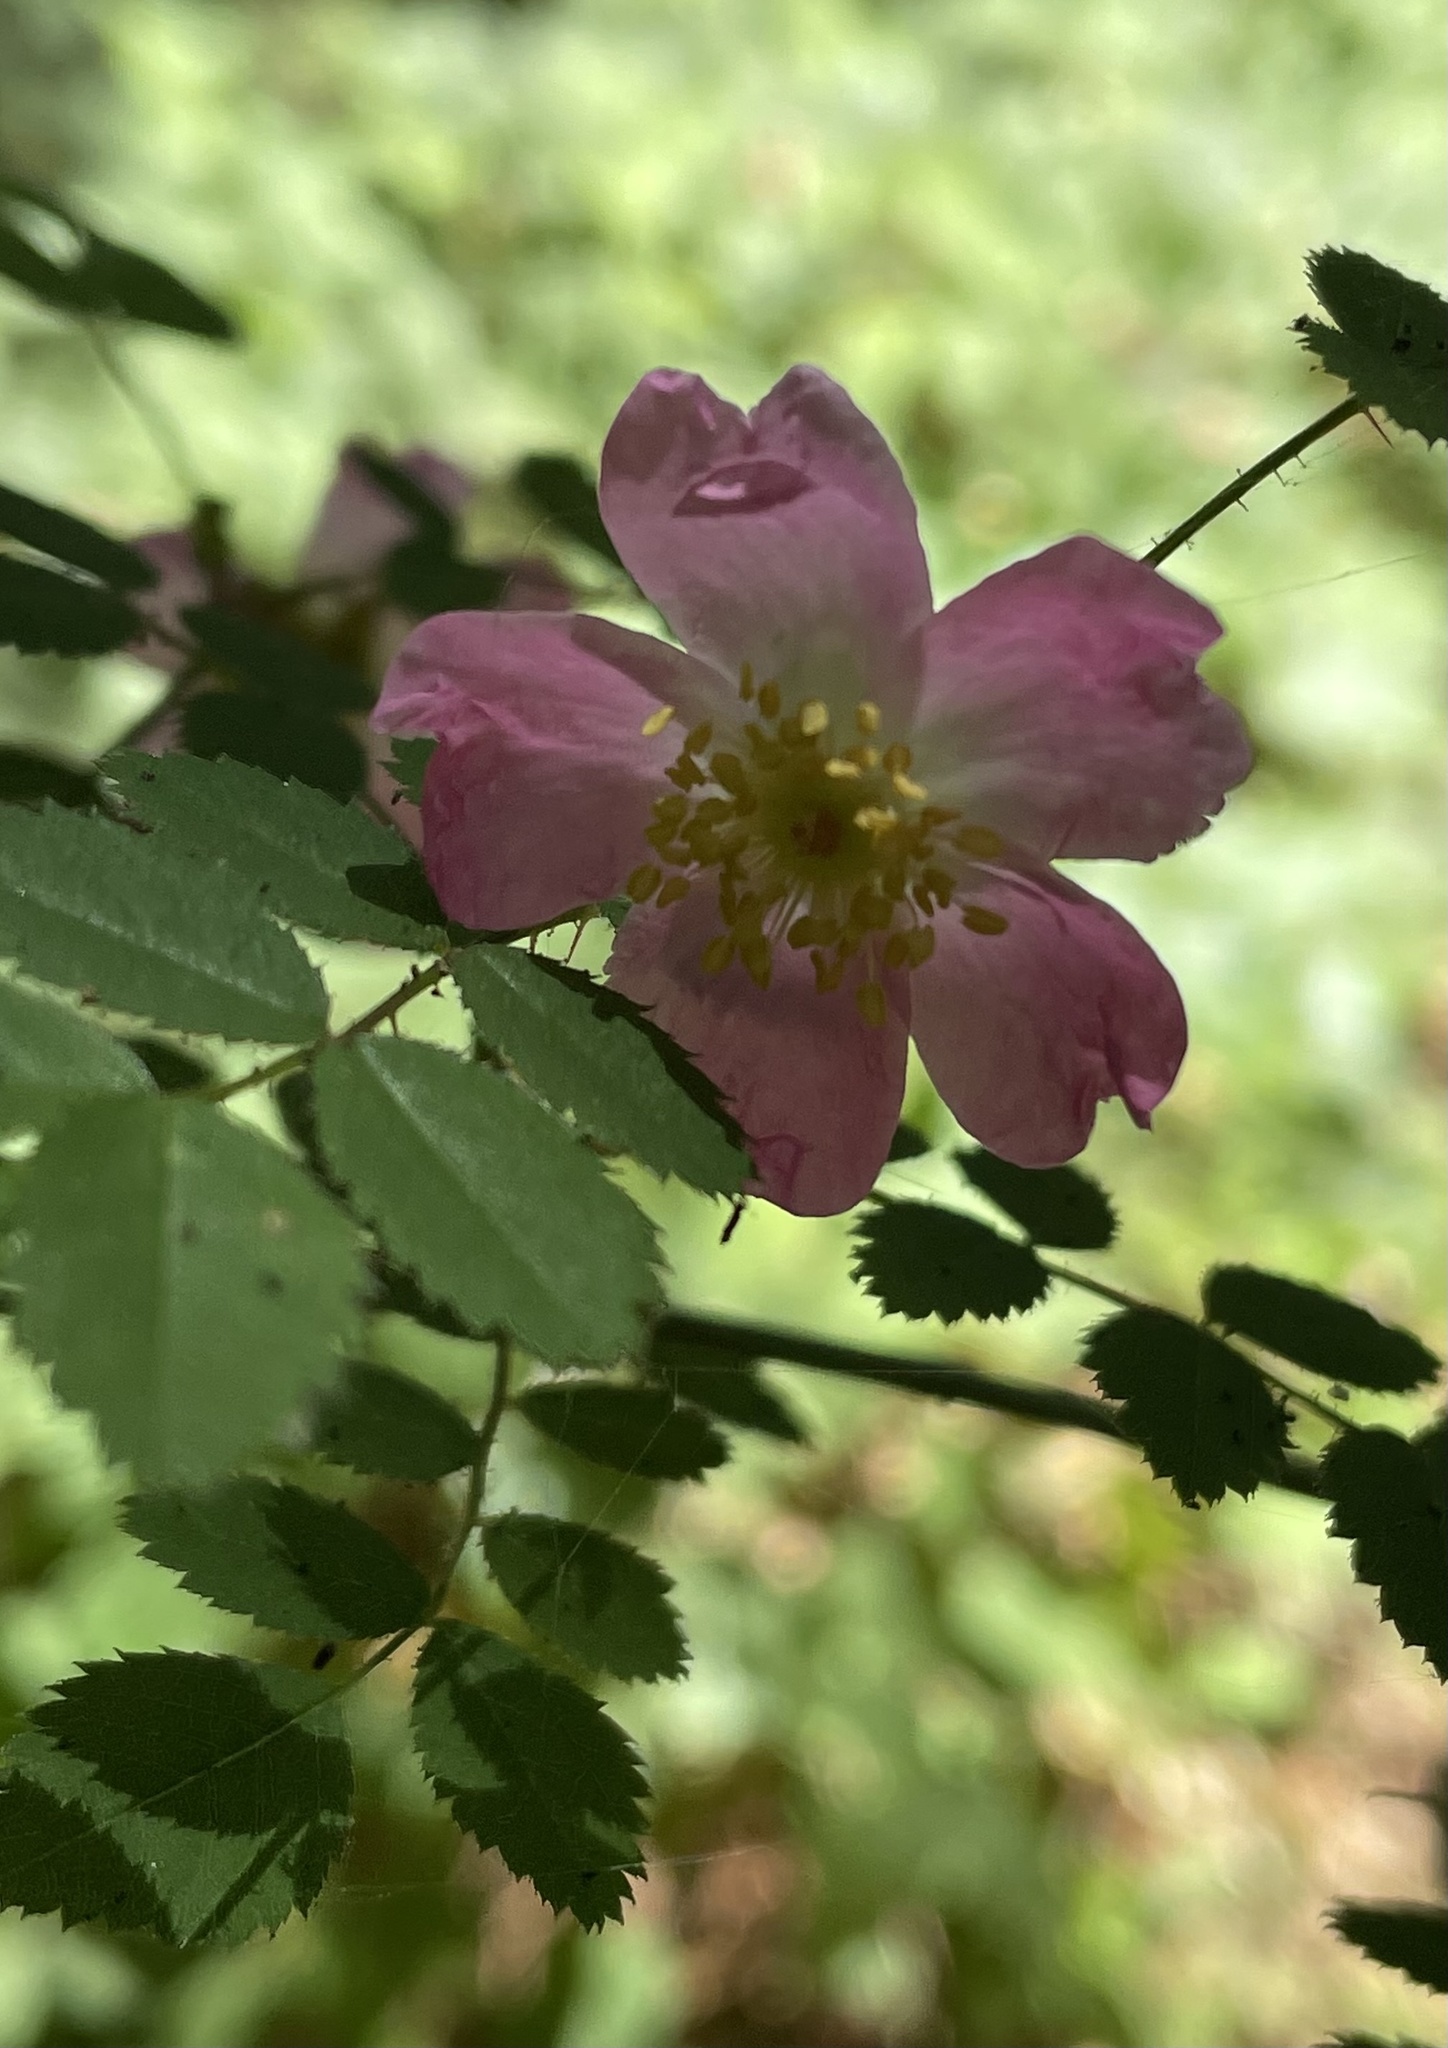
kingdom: Plantae
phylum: Tracheophyta
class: Magnoliopsida
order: Rosales
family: Rosaceae
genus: Rosa
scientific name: Rosa gymnocarpa
